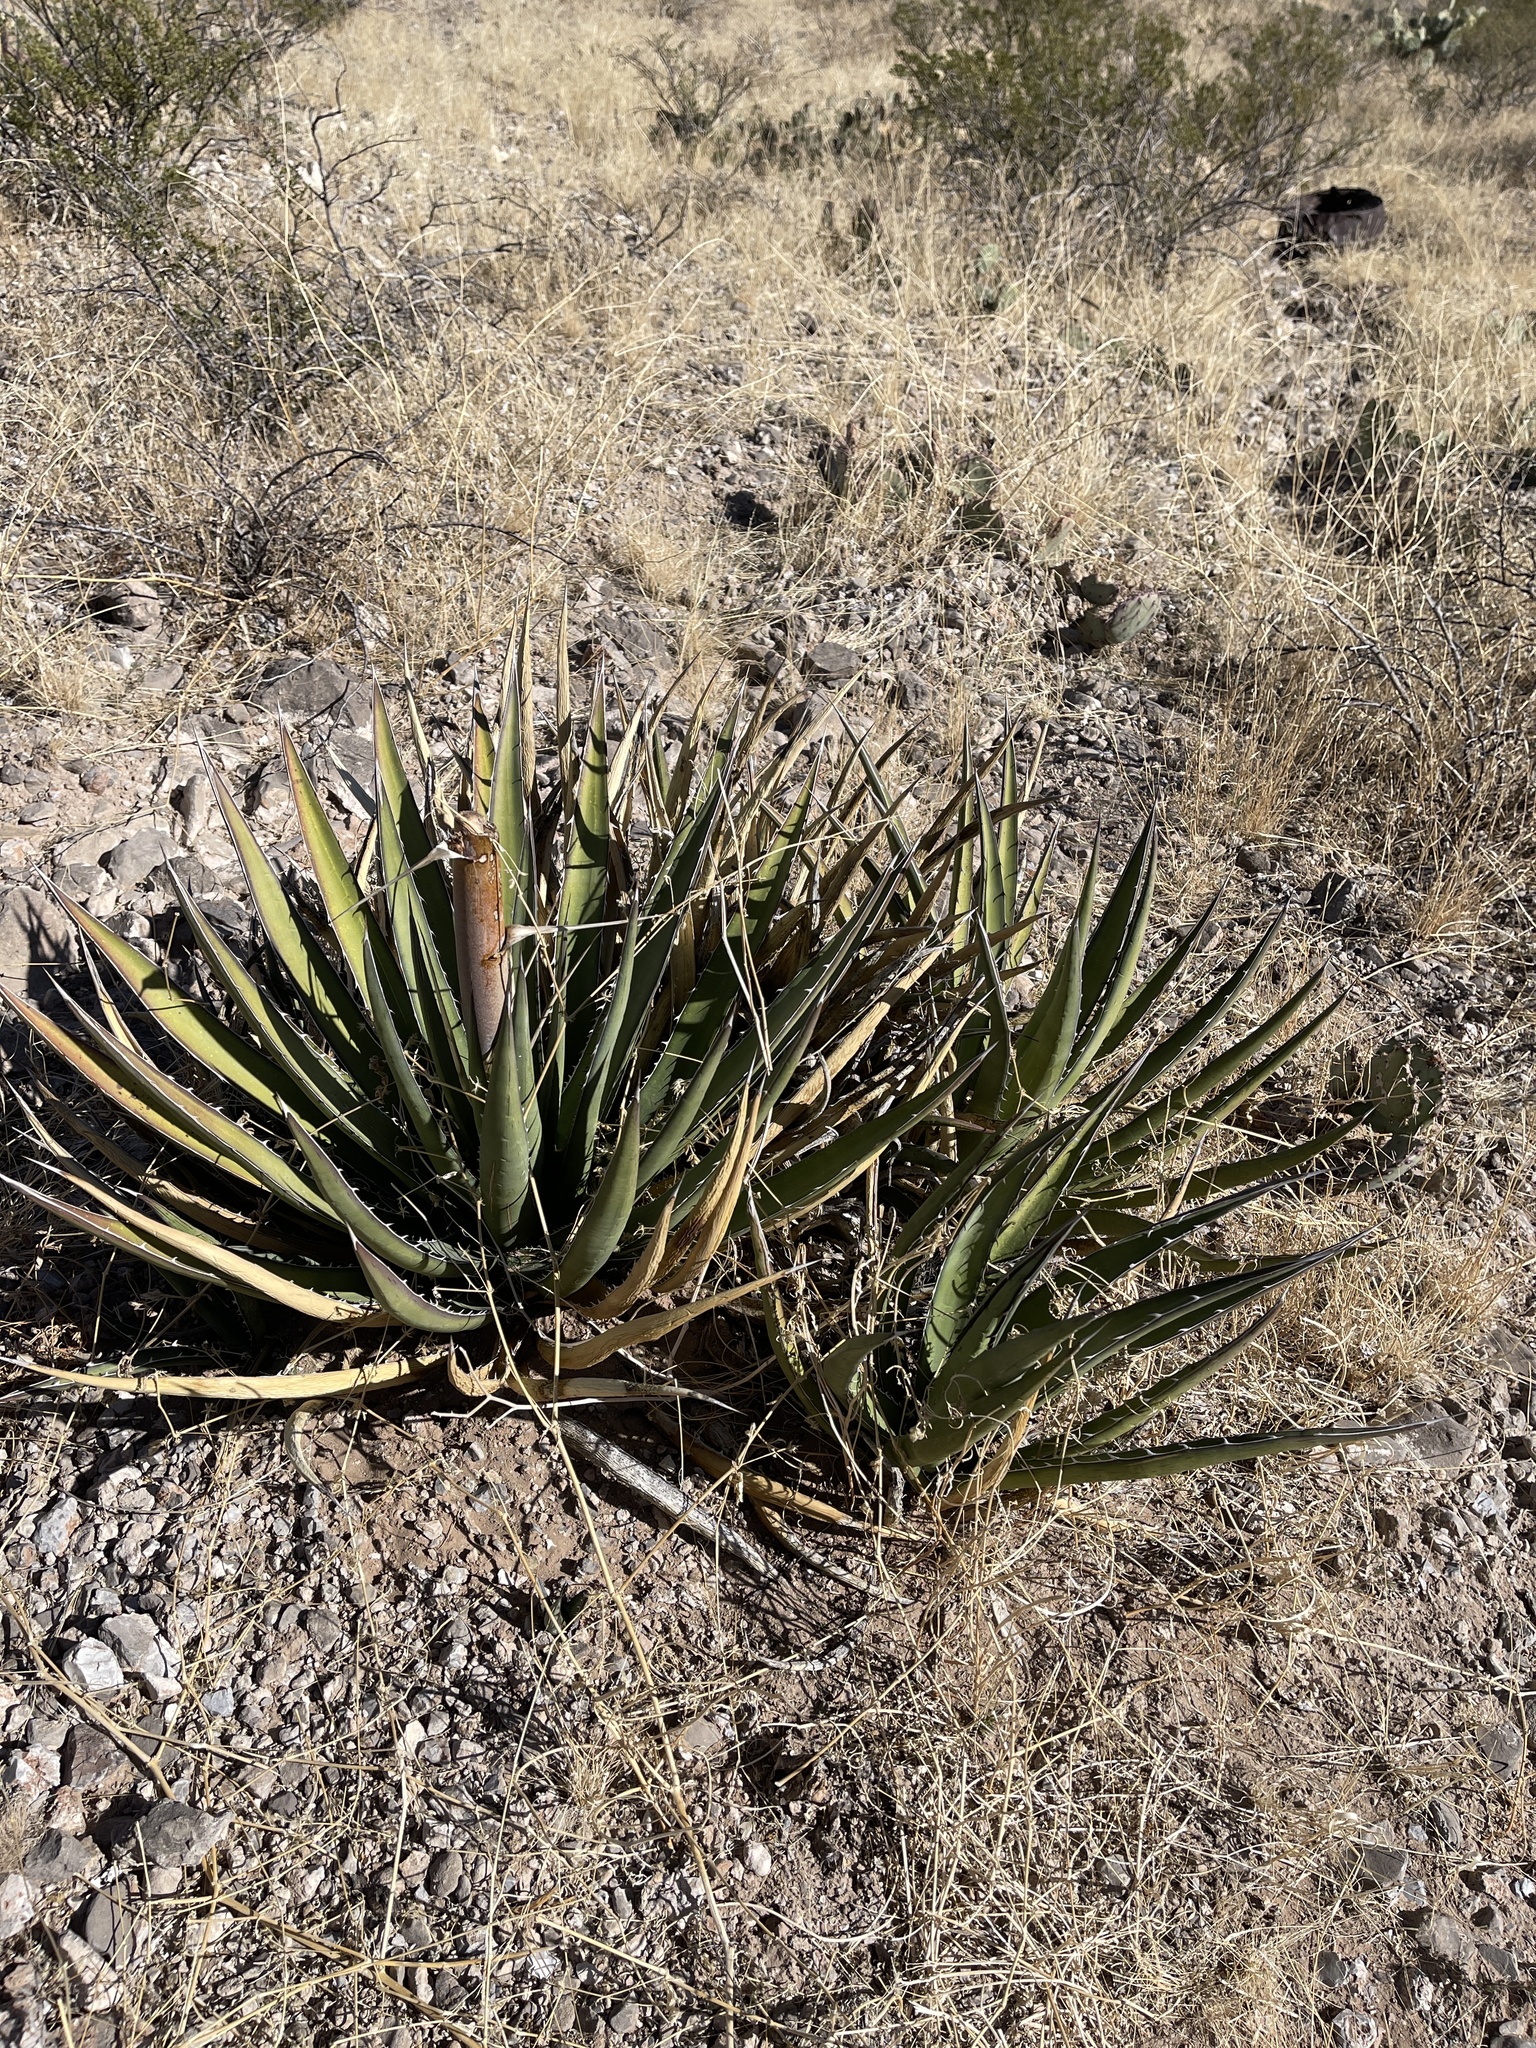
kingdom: Plantae
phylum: Tracheophyta
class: Liliopsida
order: Asparagales
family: Asparagaceae
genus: Agave
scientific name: Agave lechuguilla
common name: Lecheguilla agave
